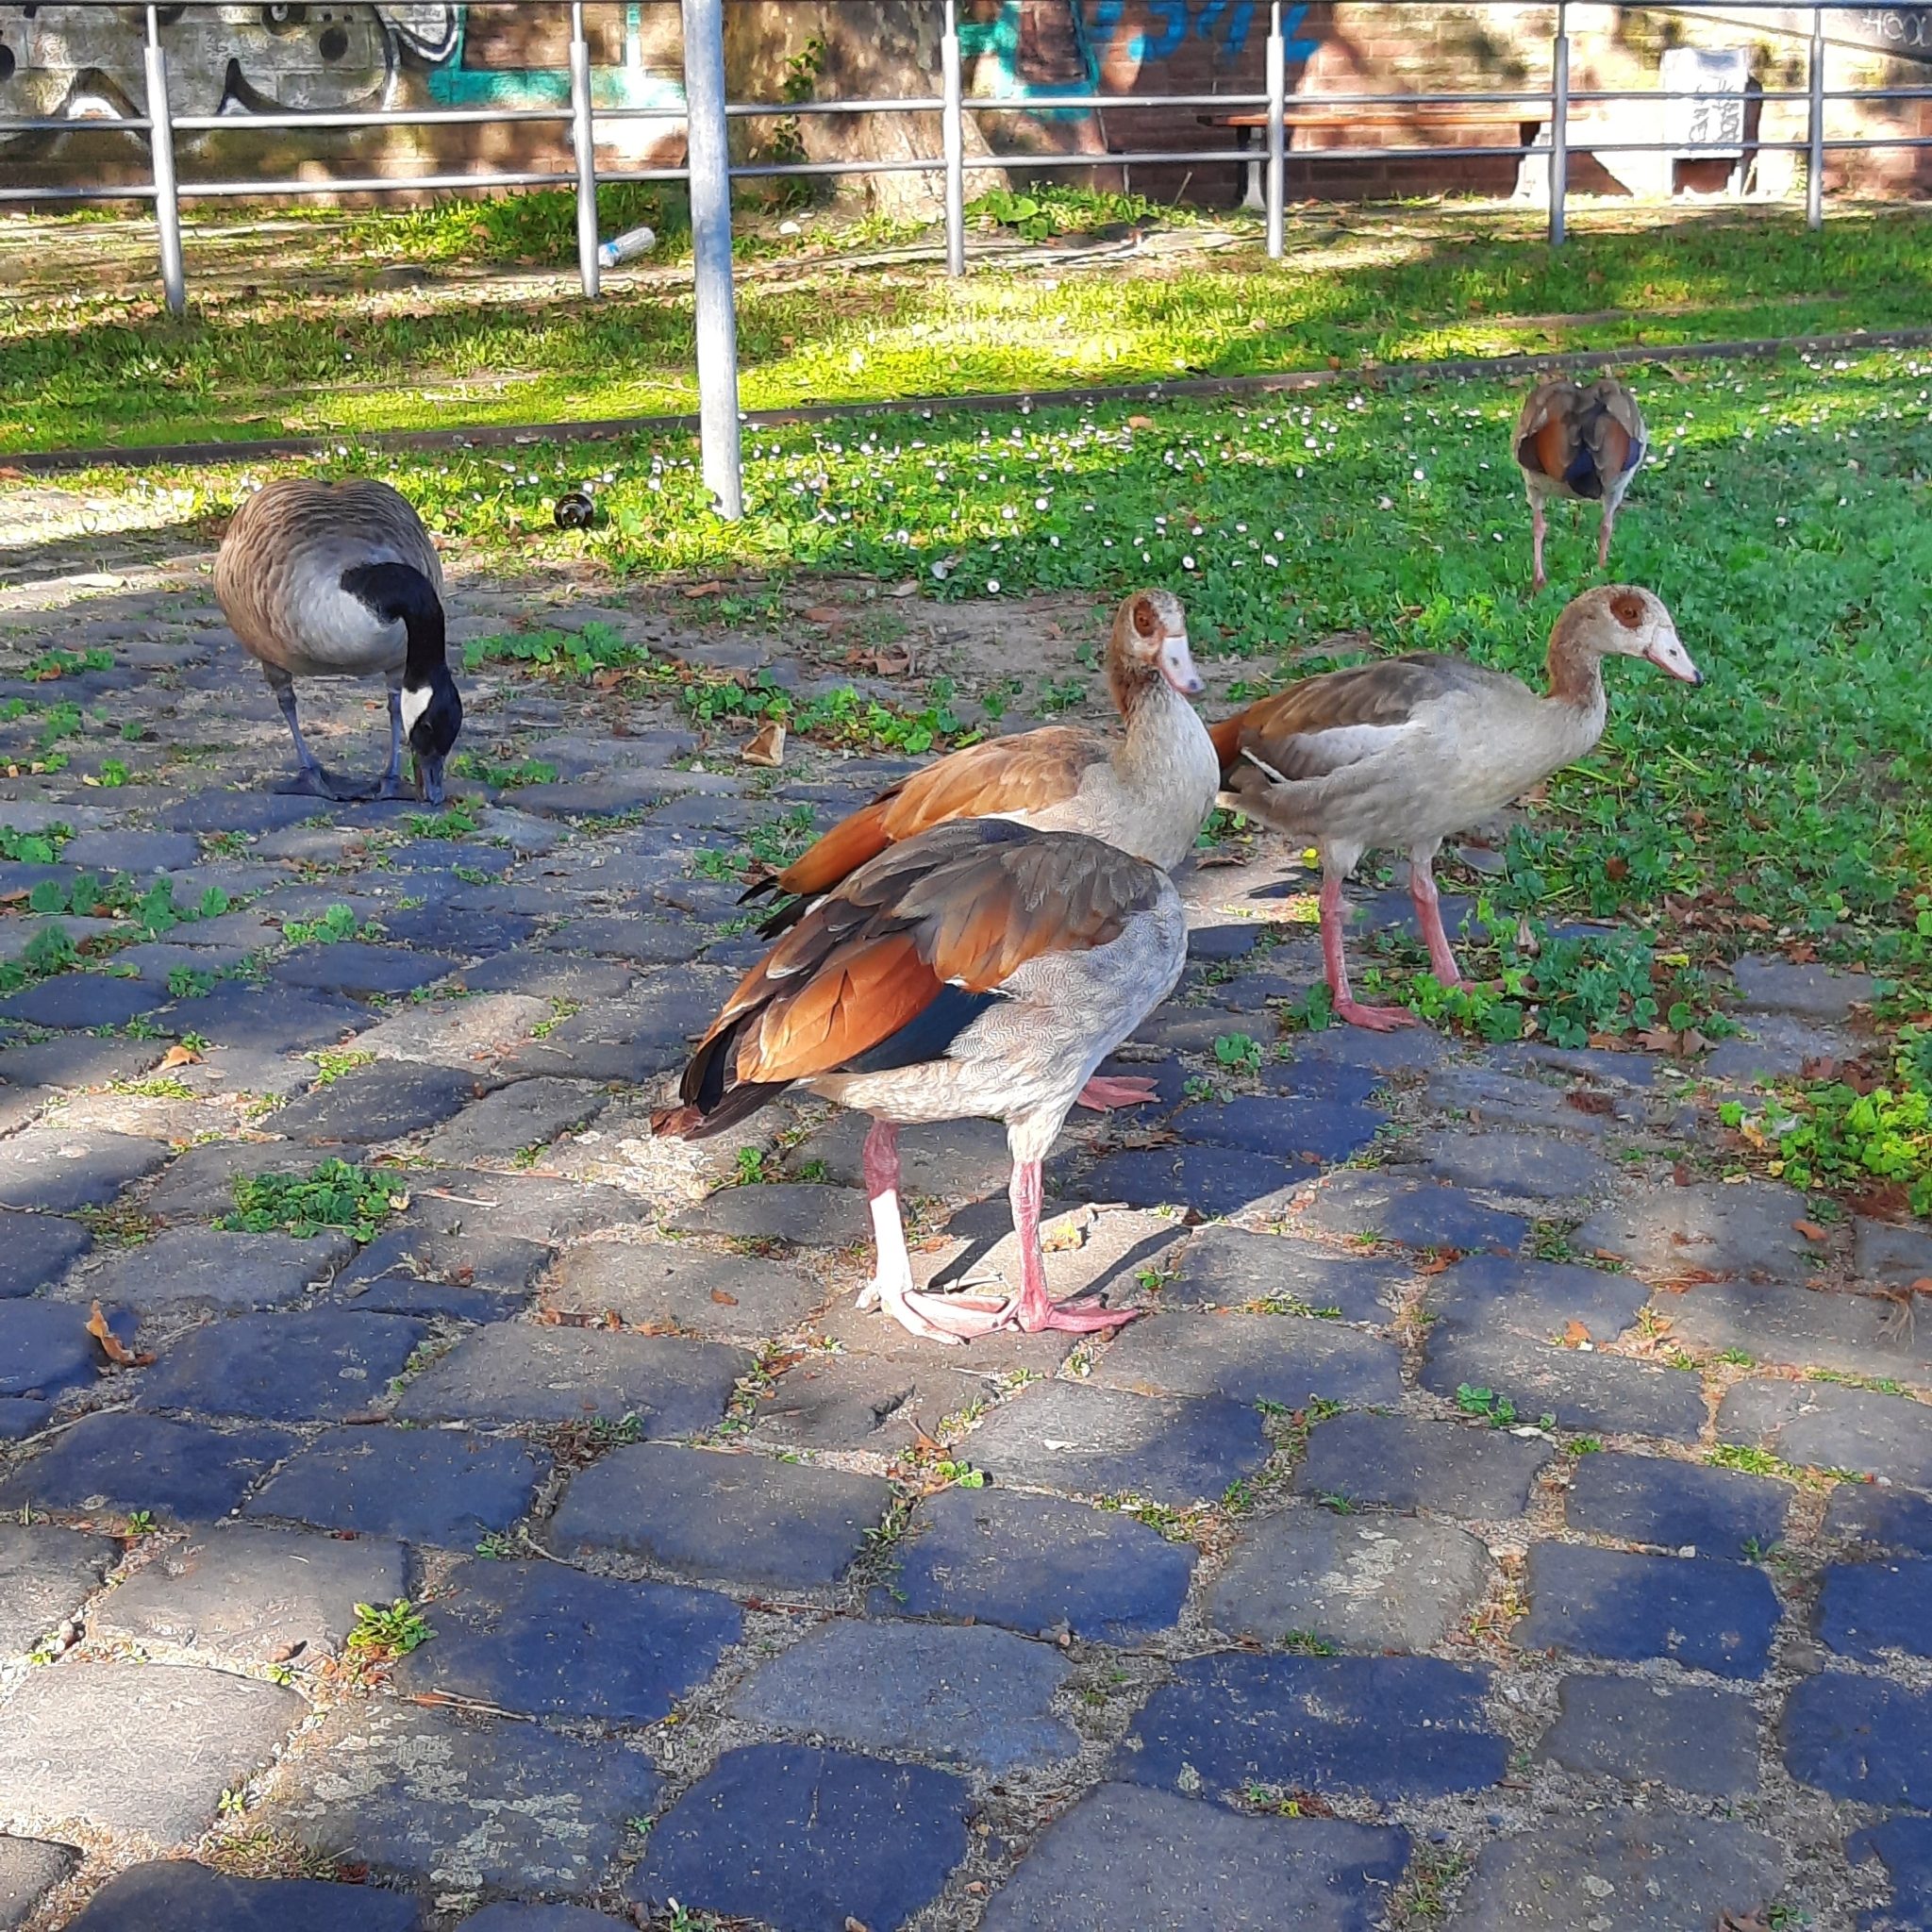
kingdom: Animalia
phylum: Chordata
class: Aves
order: Anseriformes
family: Anatidae
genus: Alopochen
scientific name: Alopochen aegyptiaca
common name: Egyptian goose
